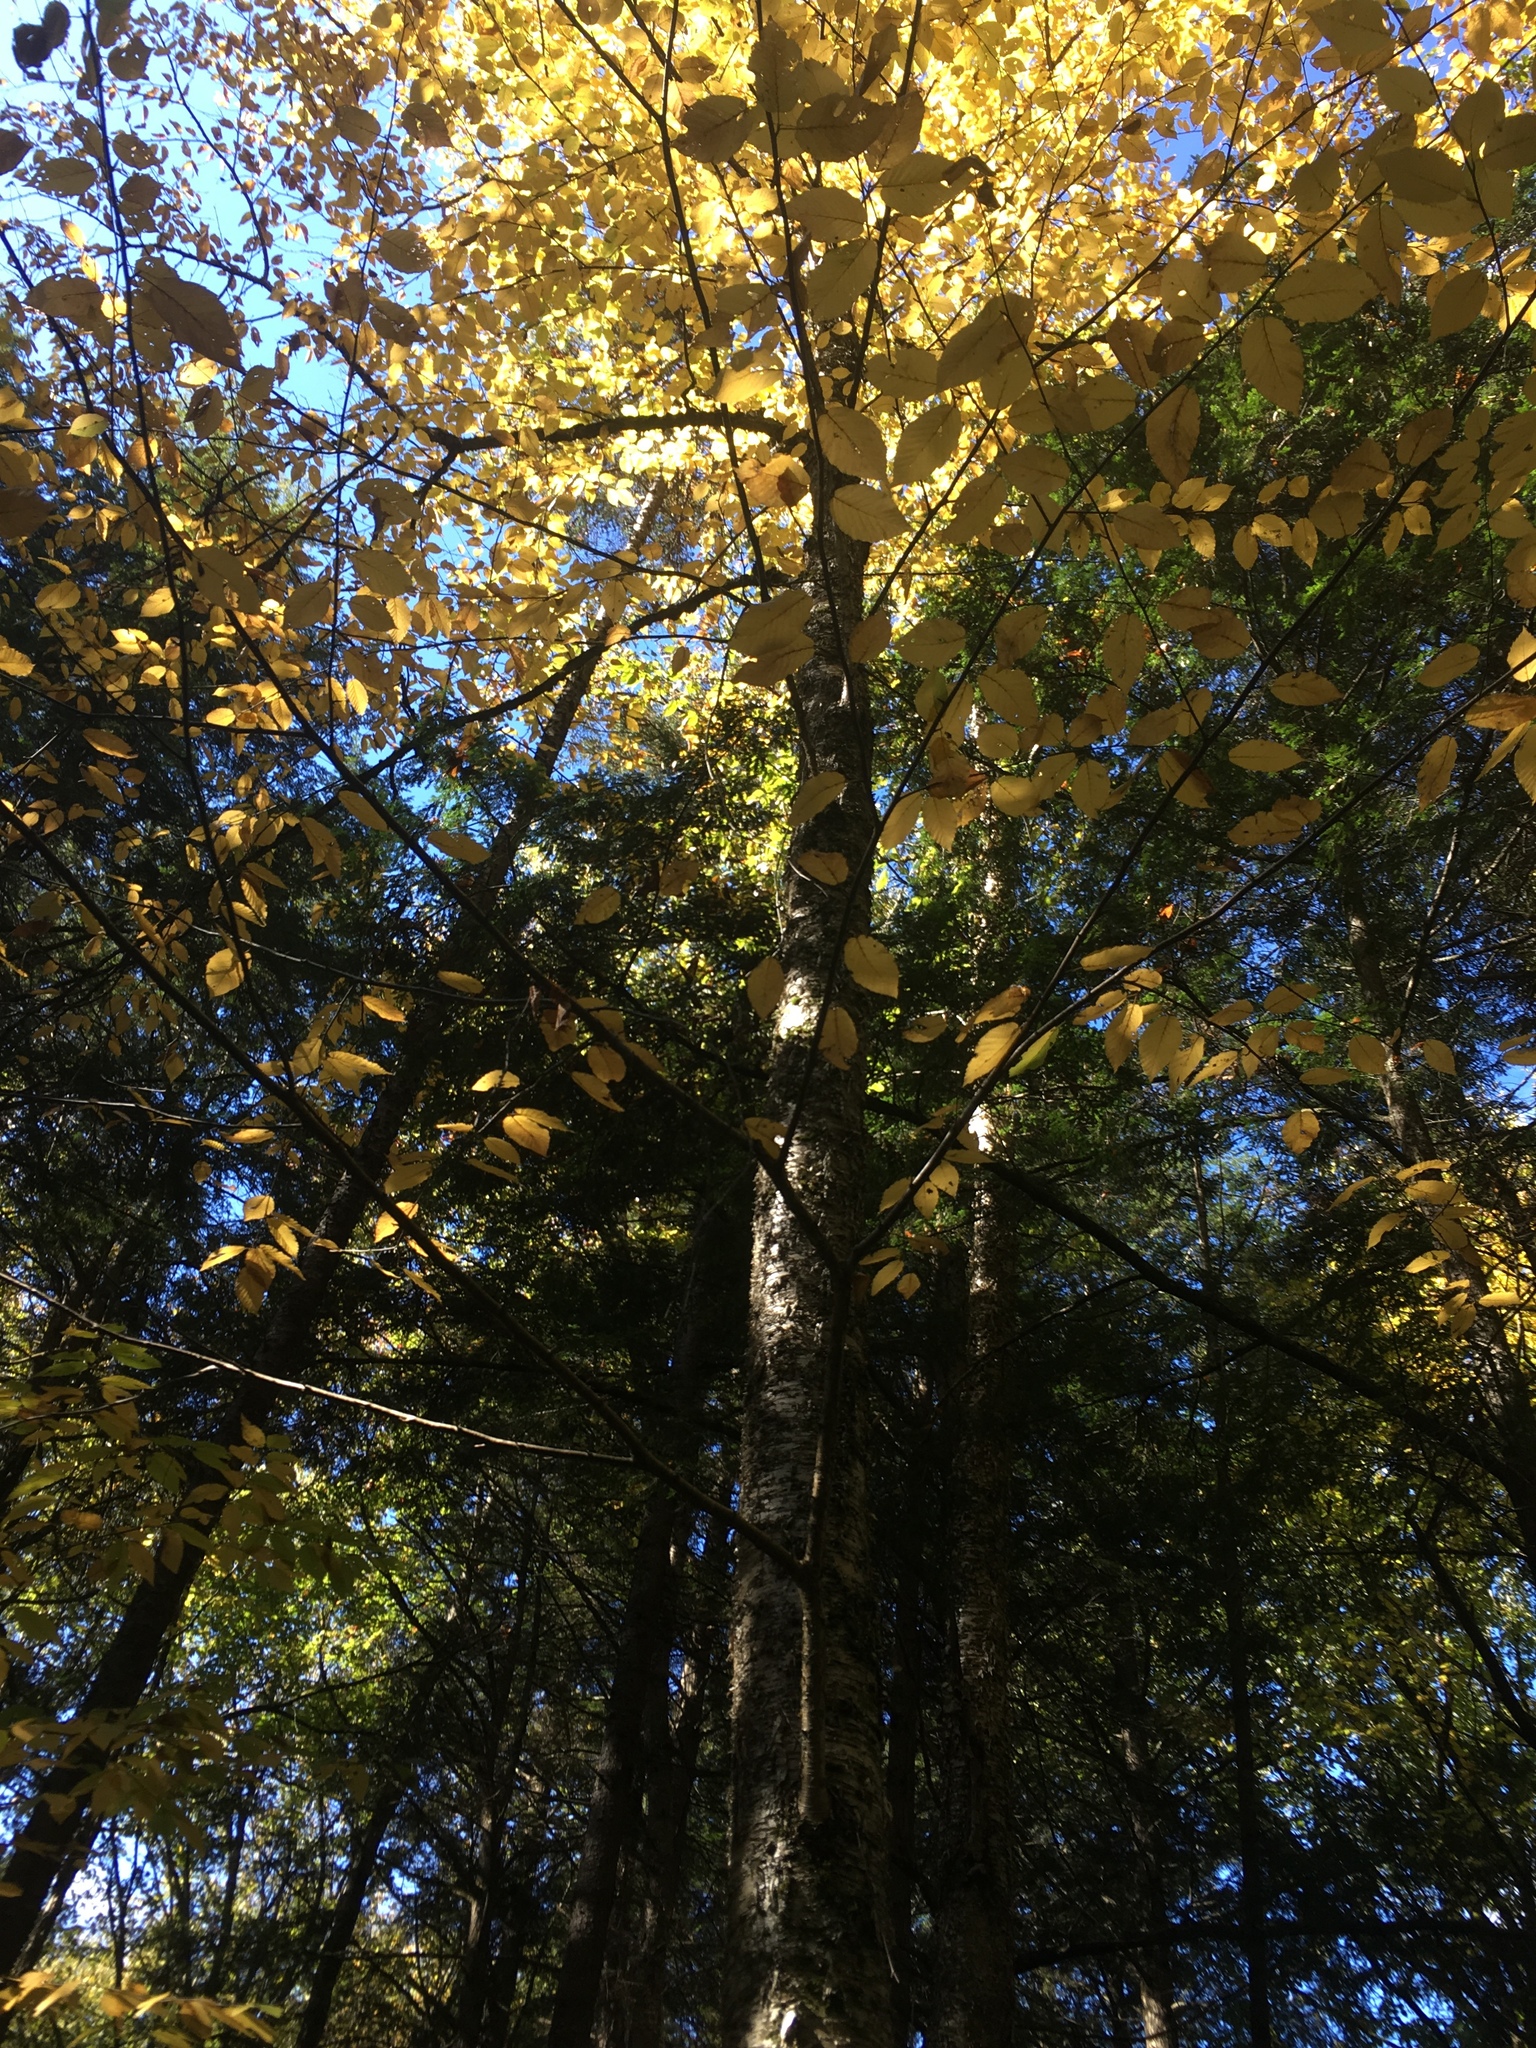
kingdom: Plantae
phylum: Tracheophyta
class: Magnoliopsida
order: Fagales
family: Betulaceae
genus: Betula
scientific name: Betula alleghaniensis
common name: Yellow birch
